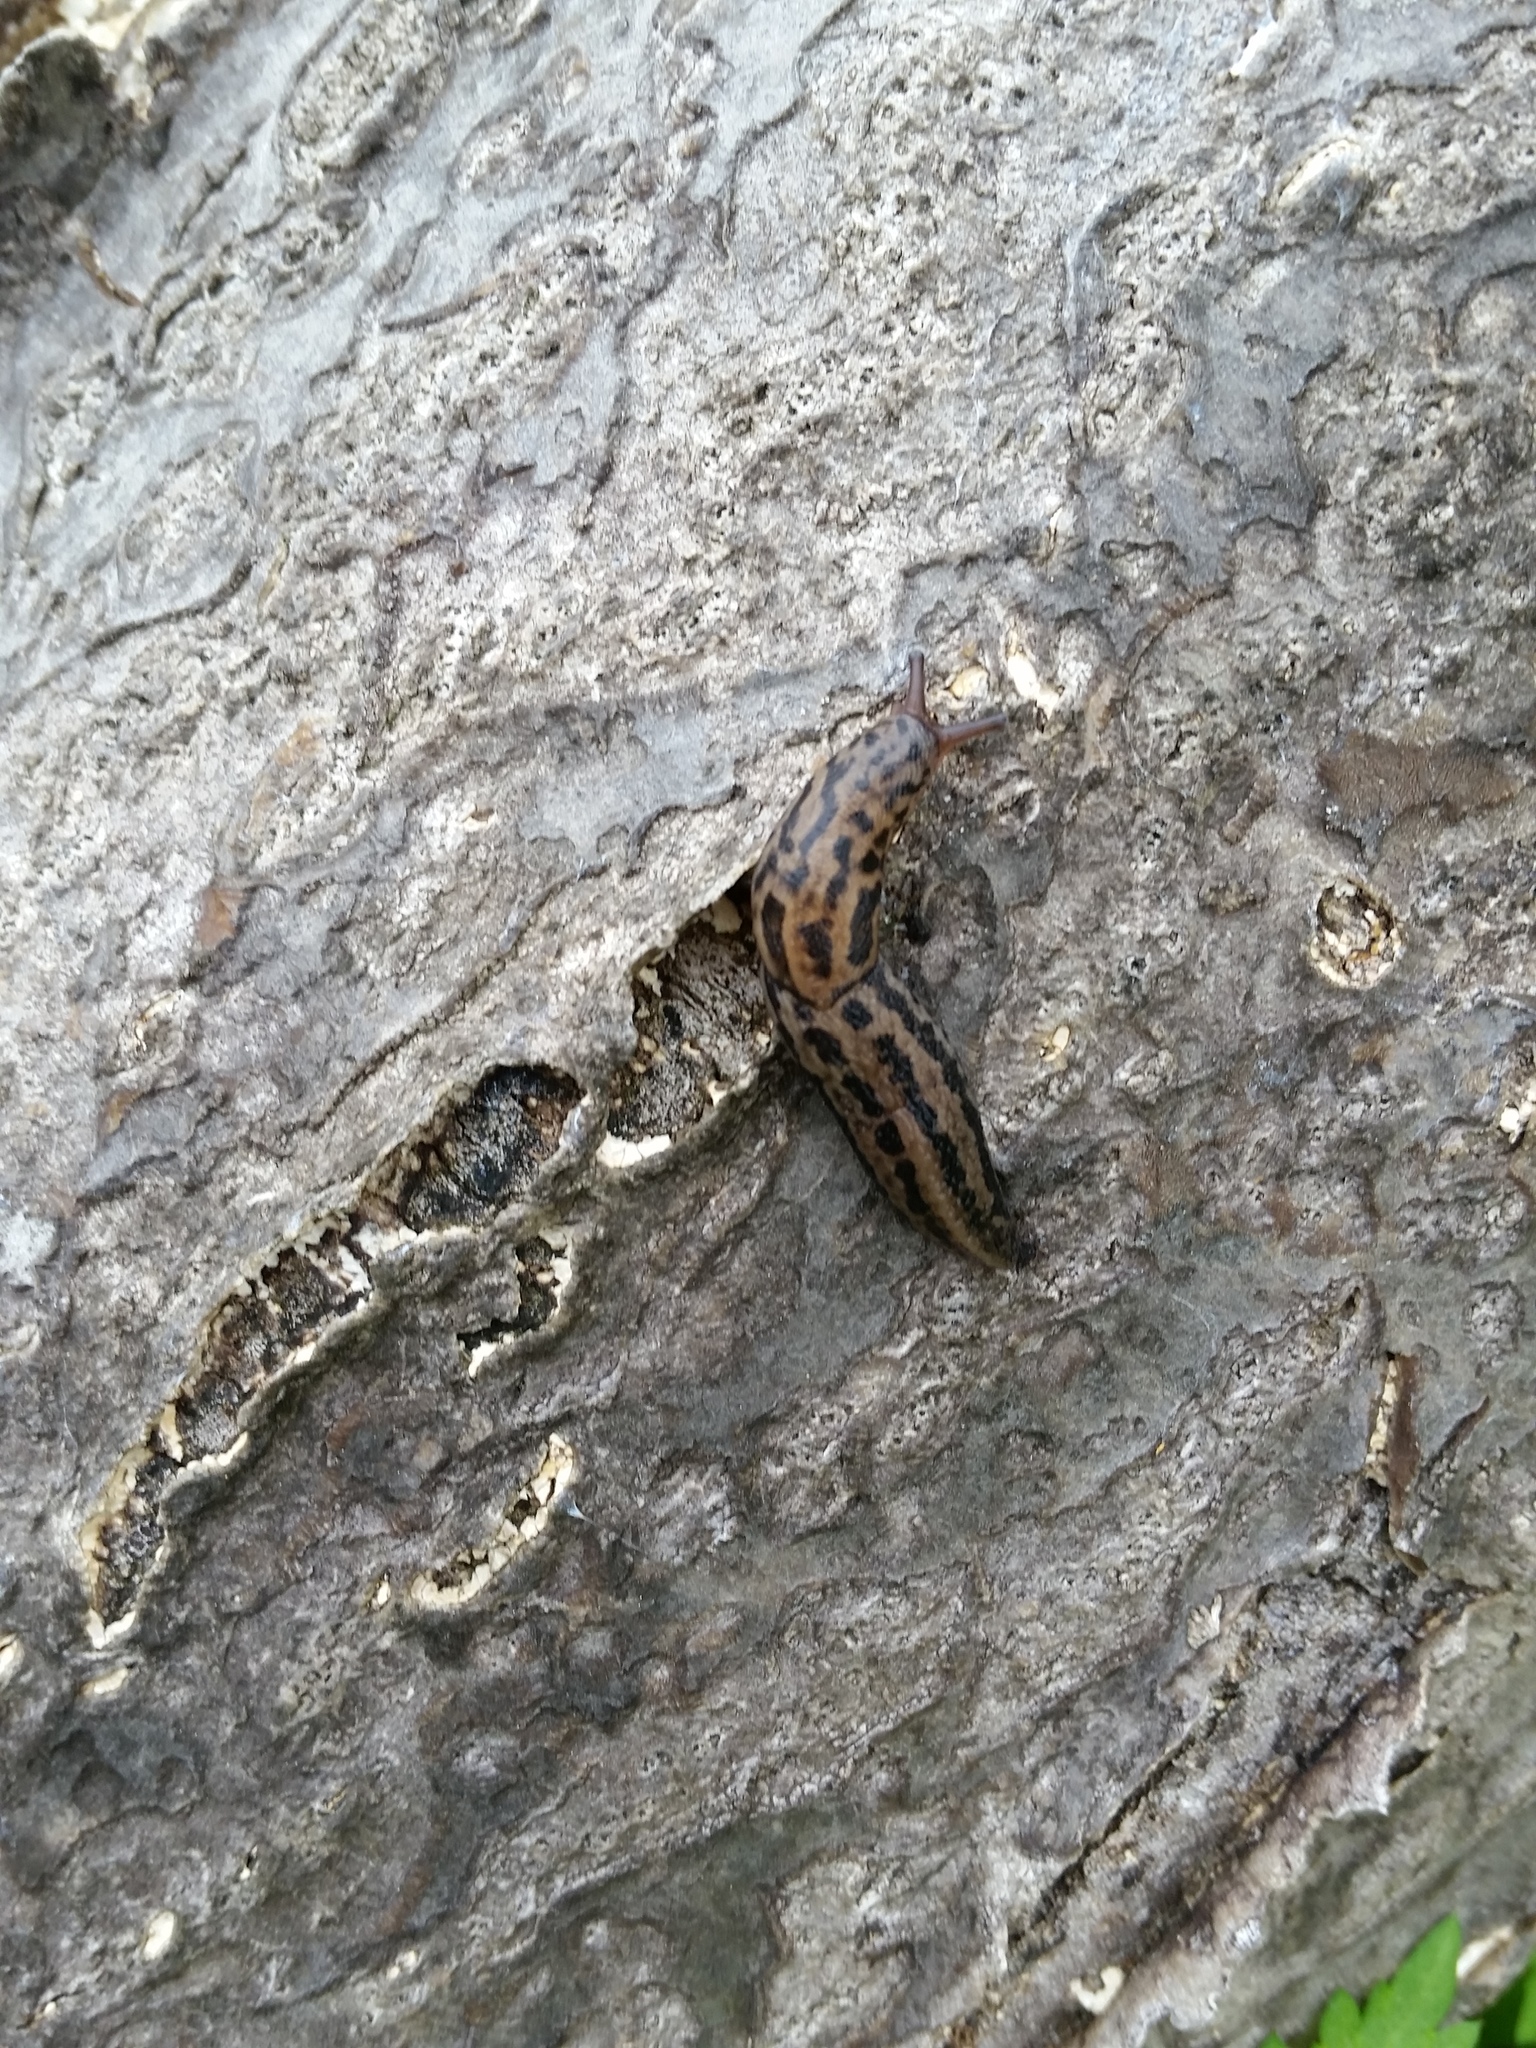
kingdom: Animalia
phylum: Mollusca
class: Gastropoda
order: Stylommatophora
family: Limacidae
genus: Limax
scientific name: Limax maximus
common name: Great grey slug
